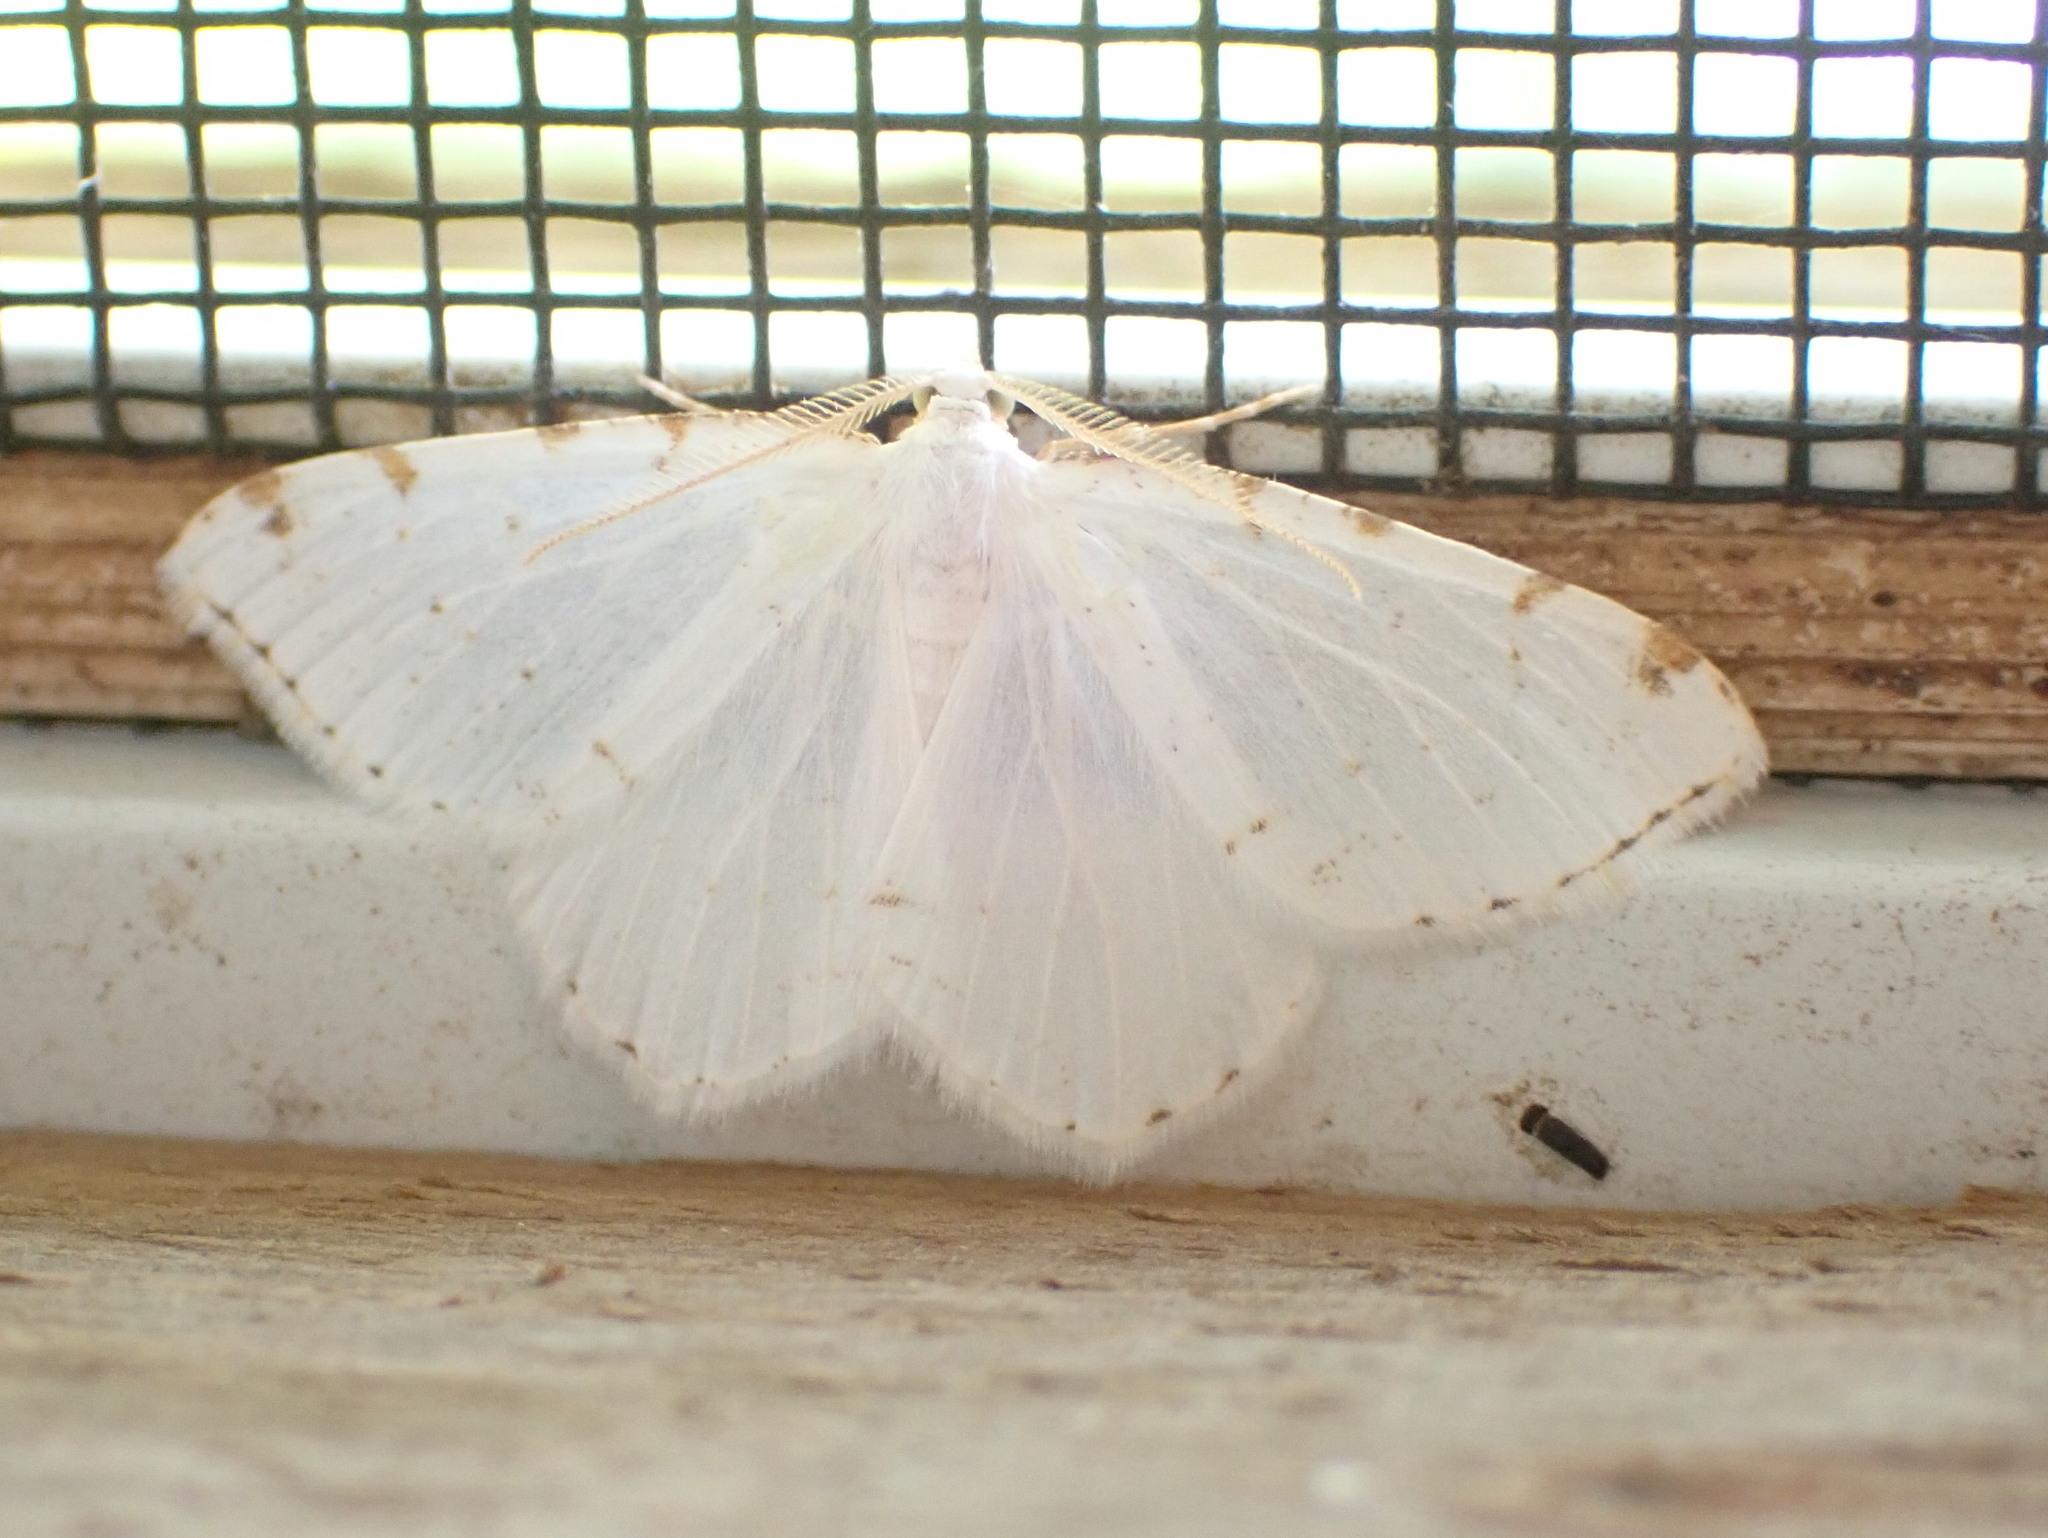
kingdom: Animalia
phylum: Arthropoda
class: Insecta
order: Lepidoptera
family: Geometridae
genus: Macaria
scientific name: Macaria pustularia
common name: Lesser maple spanworm moth
